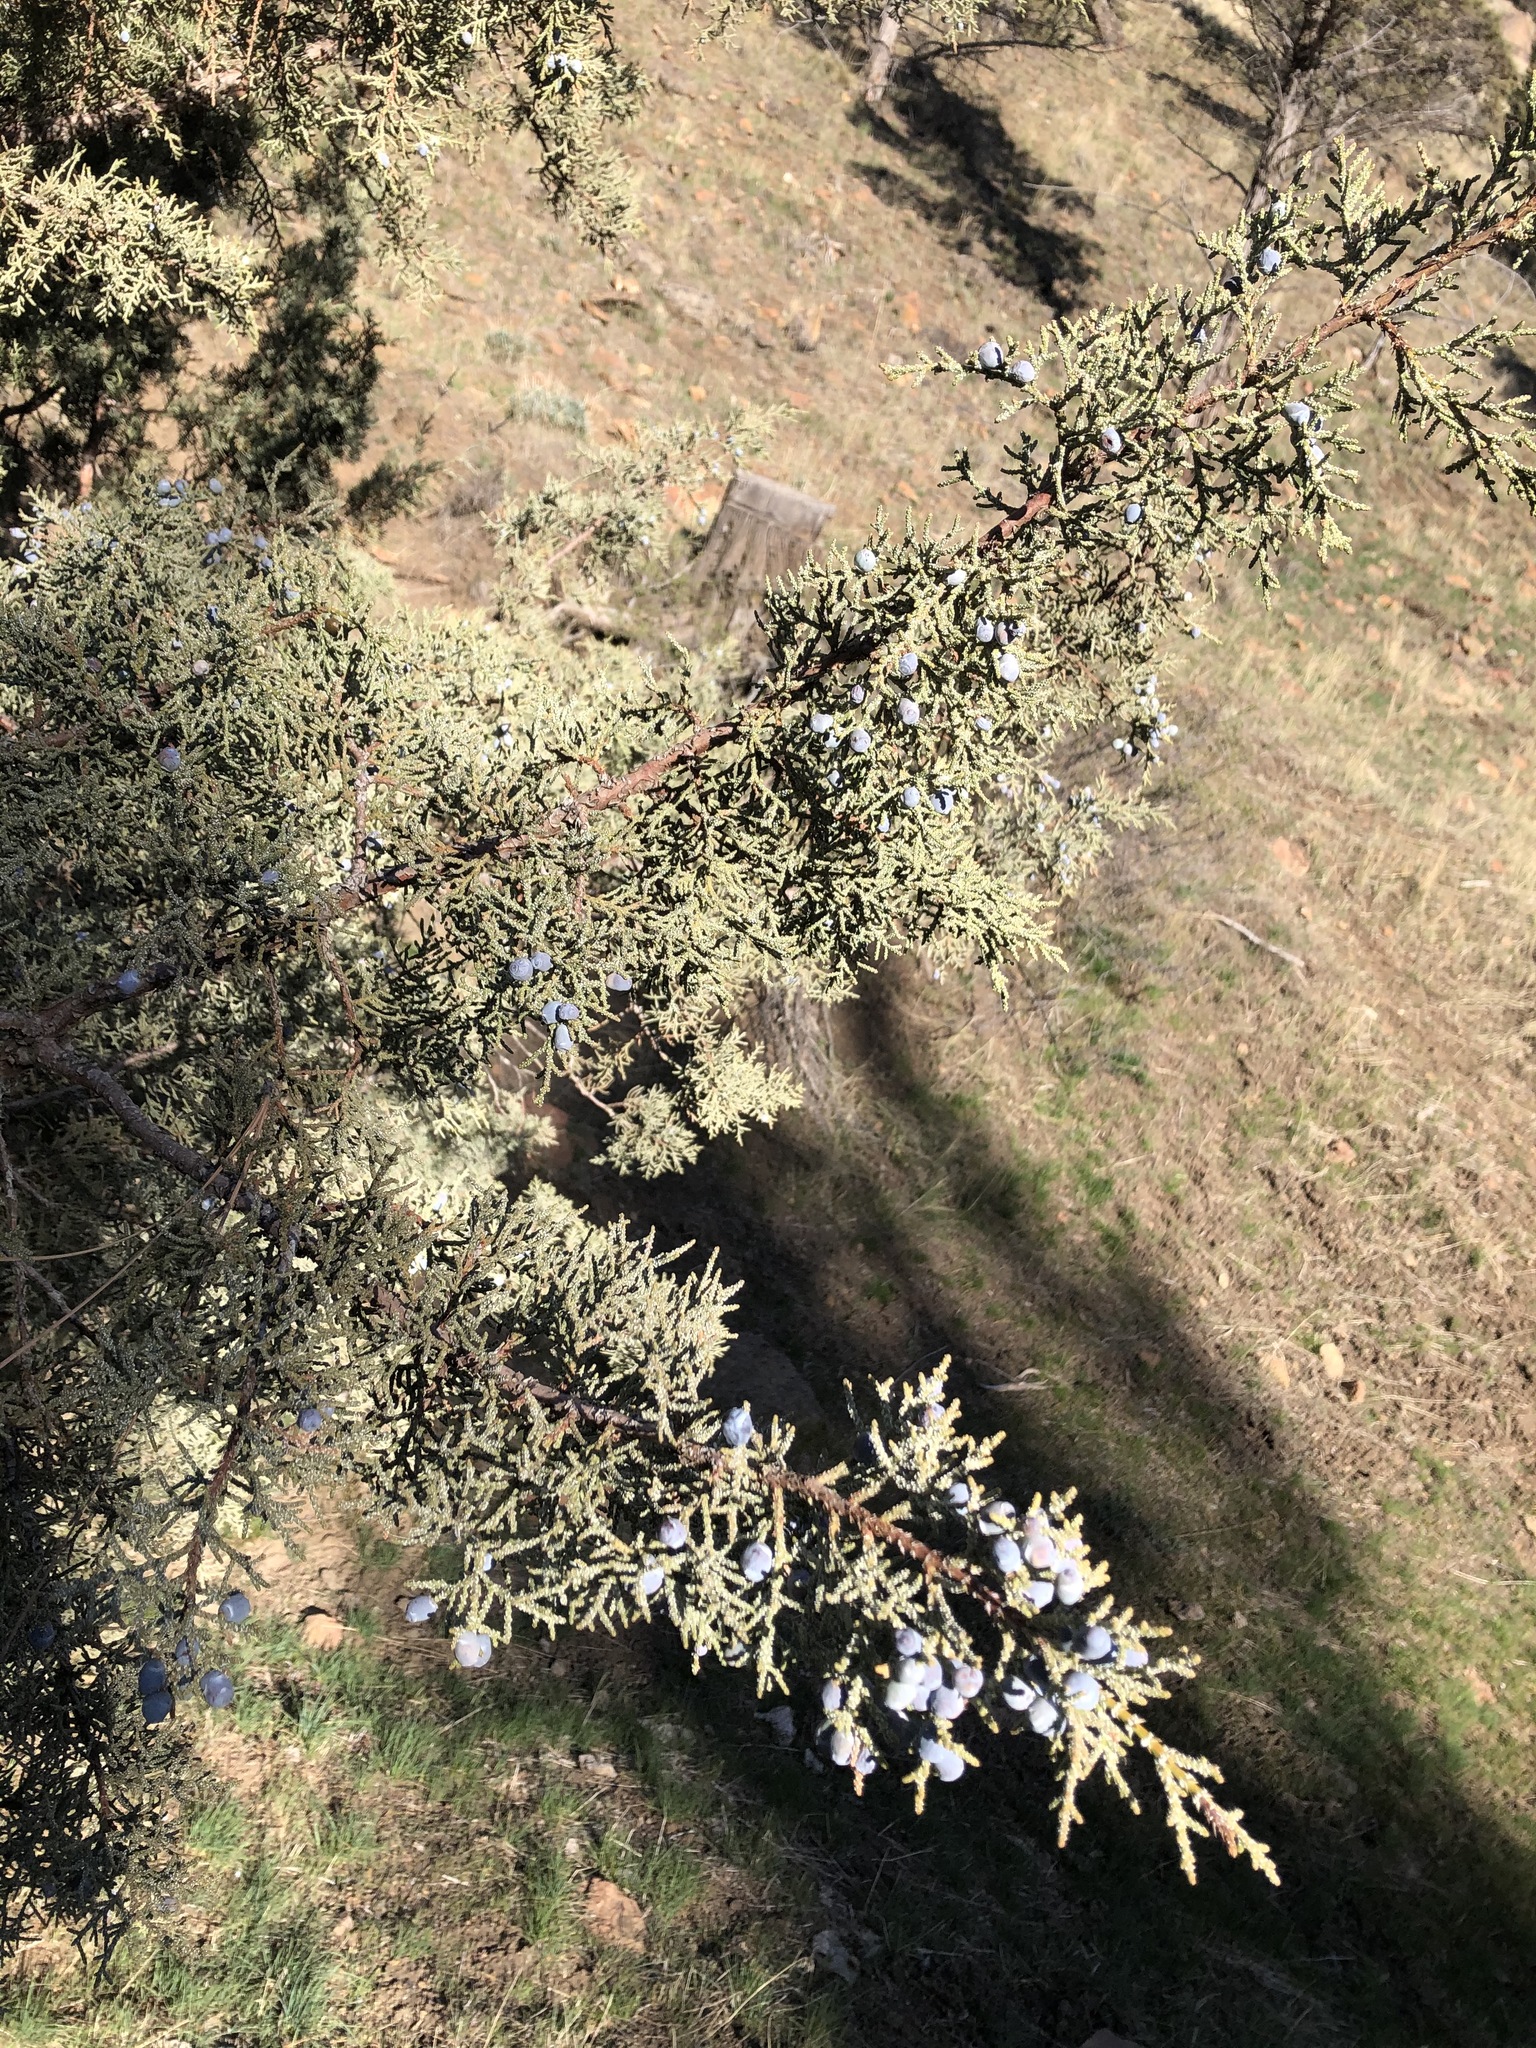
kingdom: Plantae
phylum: Tracheophyta
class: Pinopsida
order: Pinales
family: Cupressaceae
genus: Juniperus
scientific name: Juniperus occidentalis
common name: Western juniper
